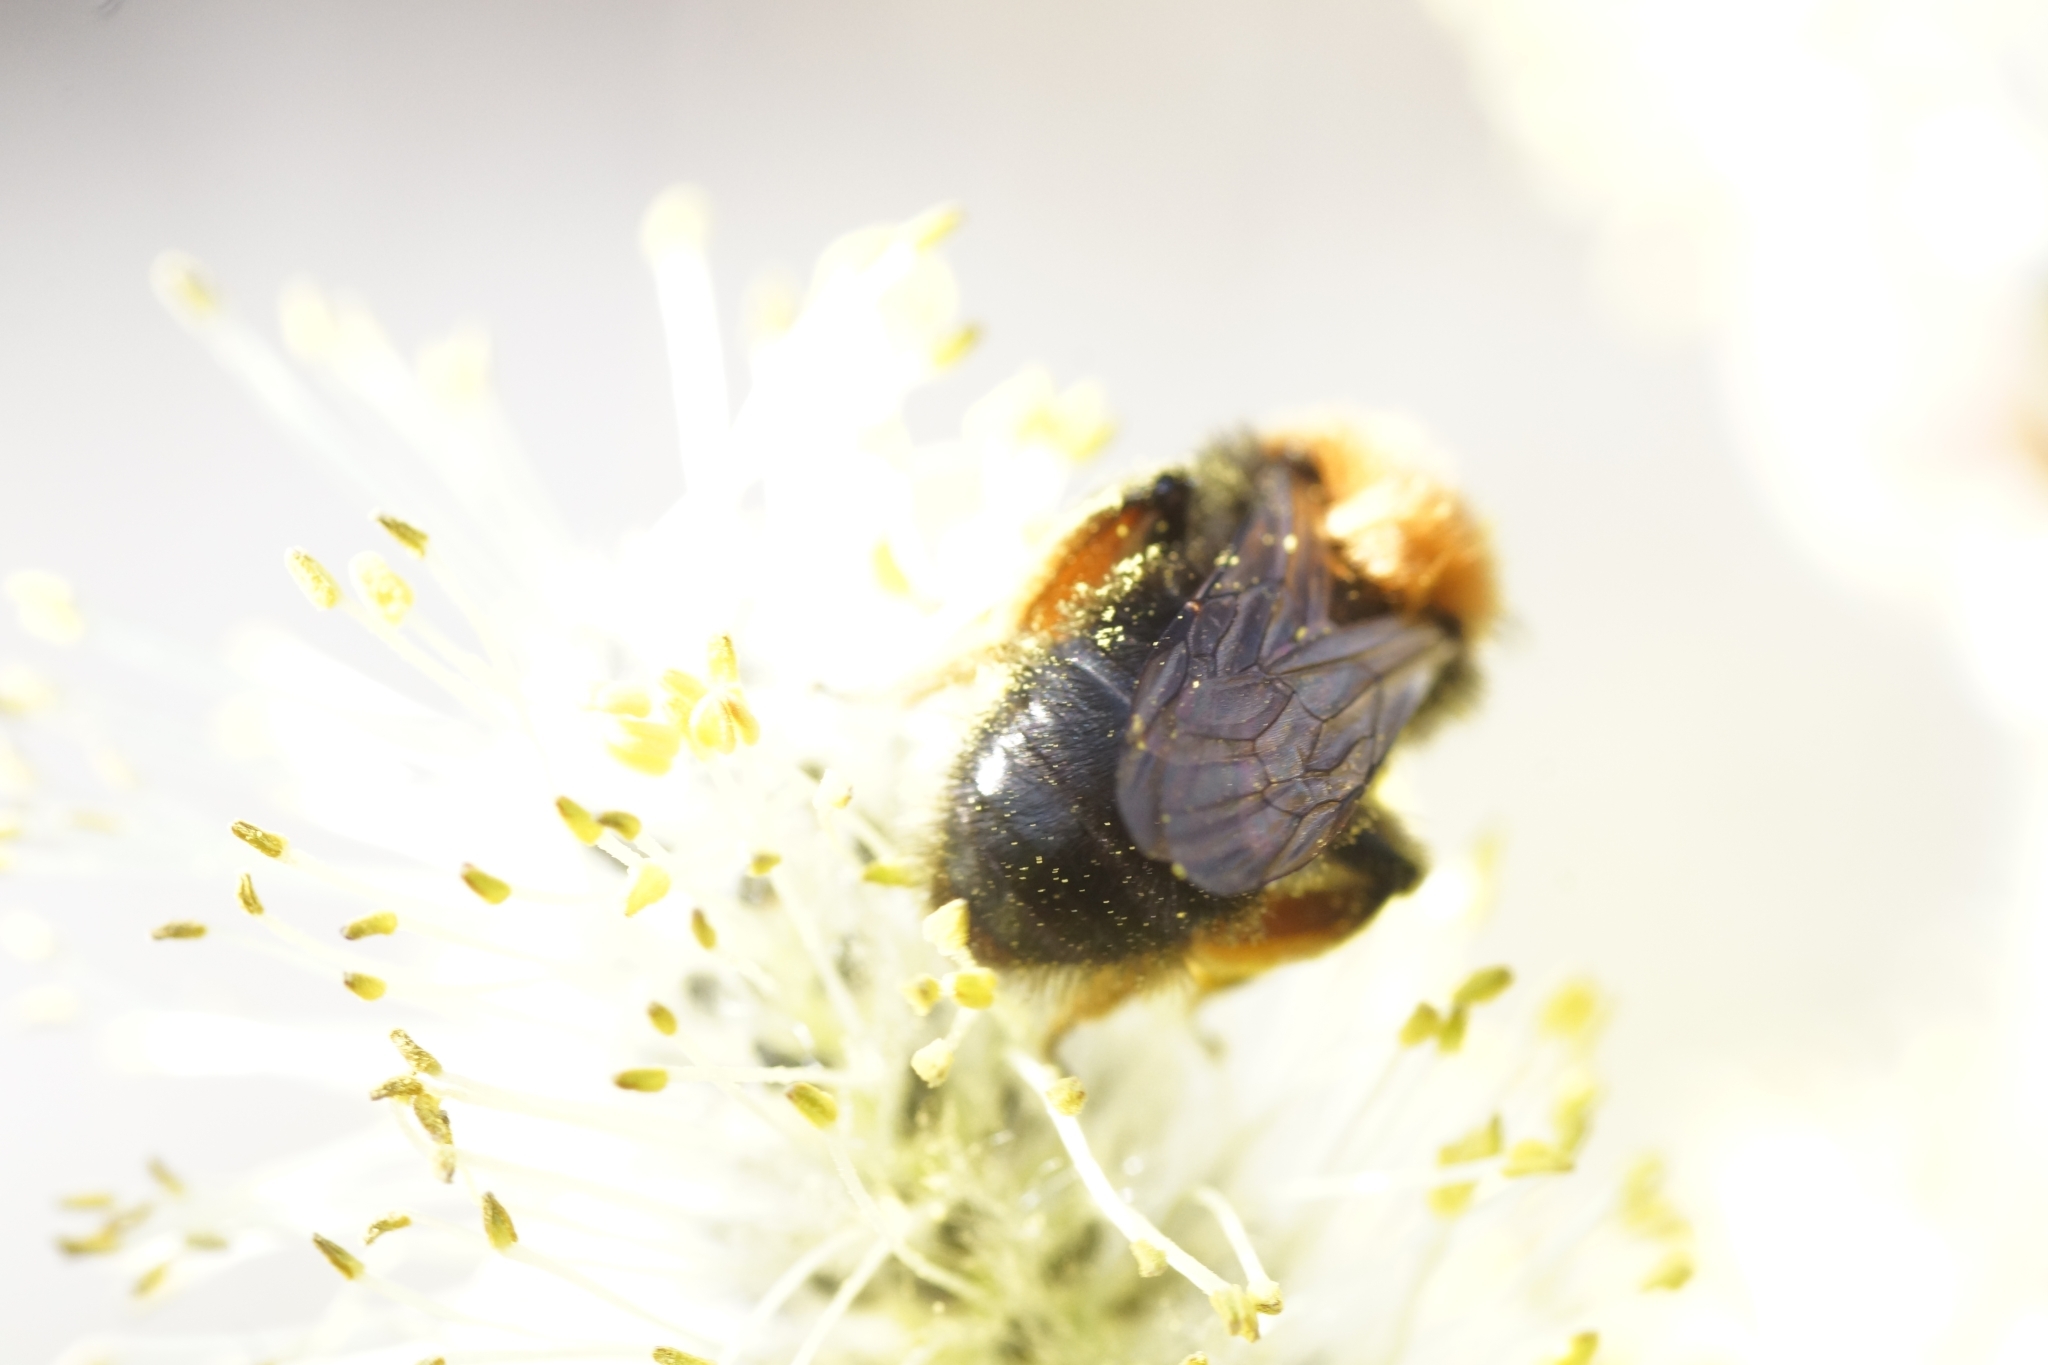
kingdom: Animalia
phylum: Arthropoda
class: Insecta
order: Hymenoptera
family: Andrenidae
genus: Andrena
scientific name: Andrena clarkella
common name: Clarke's mining bee
